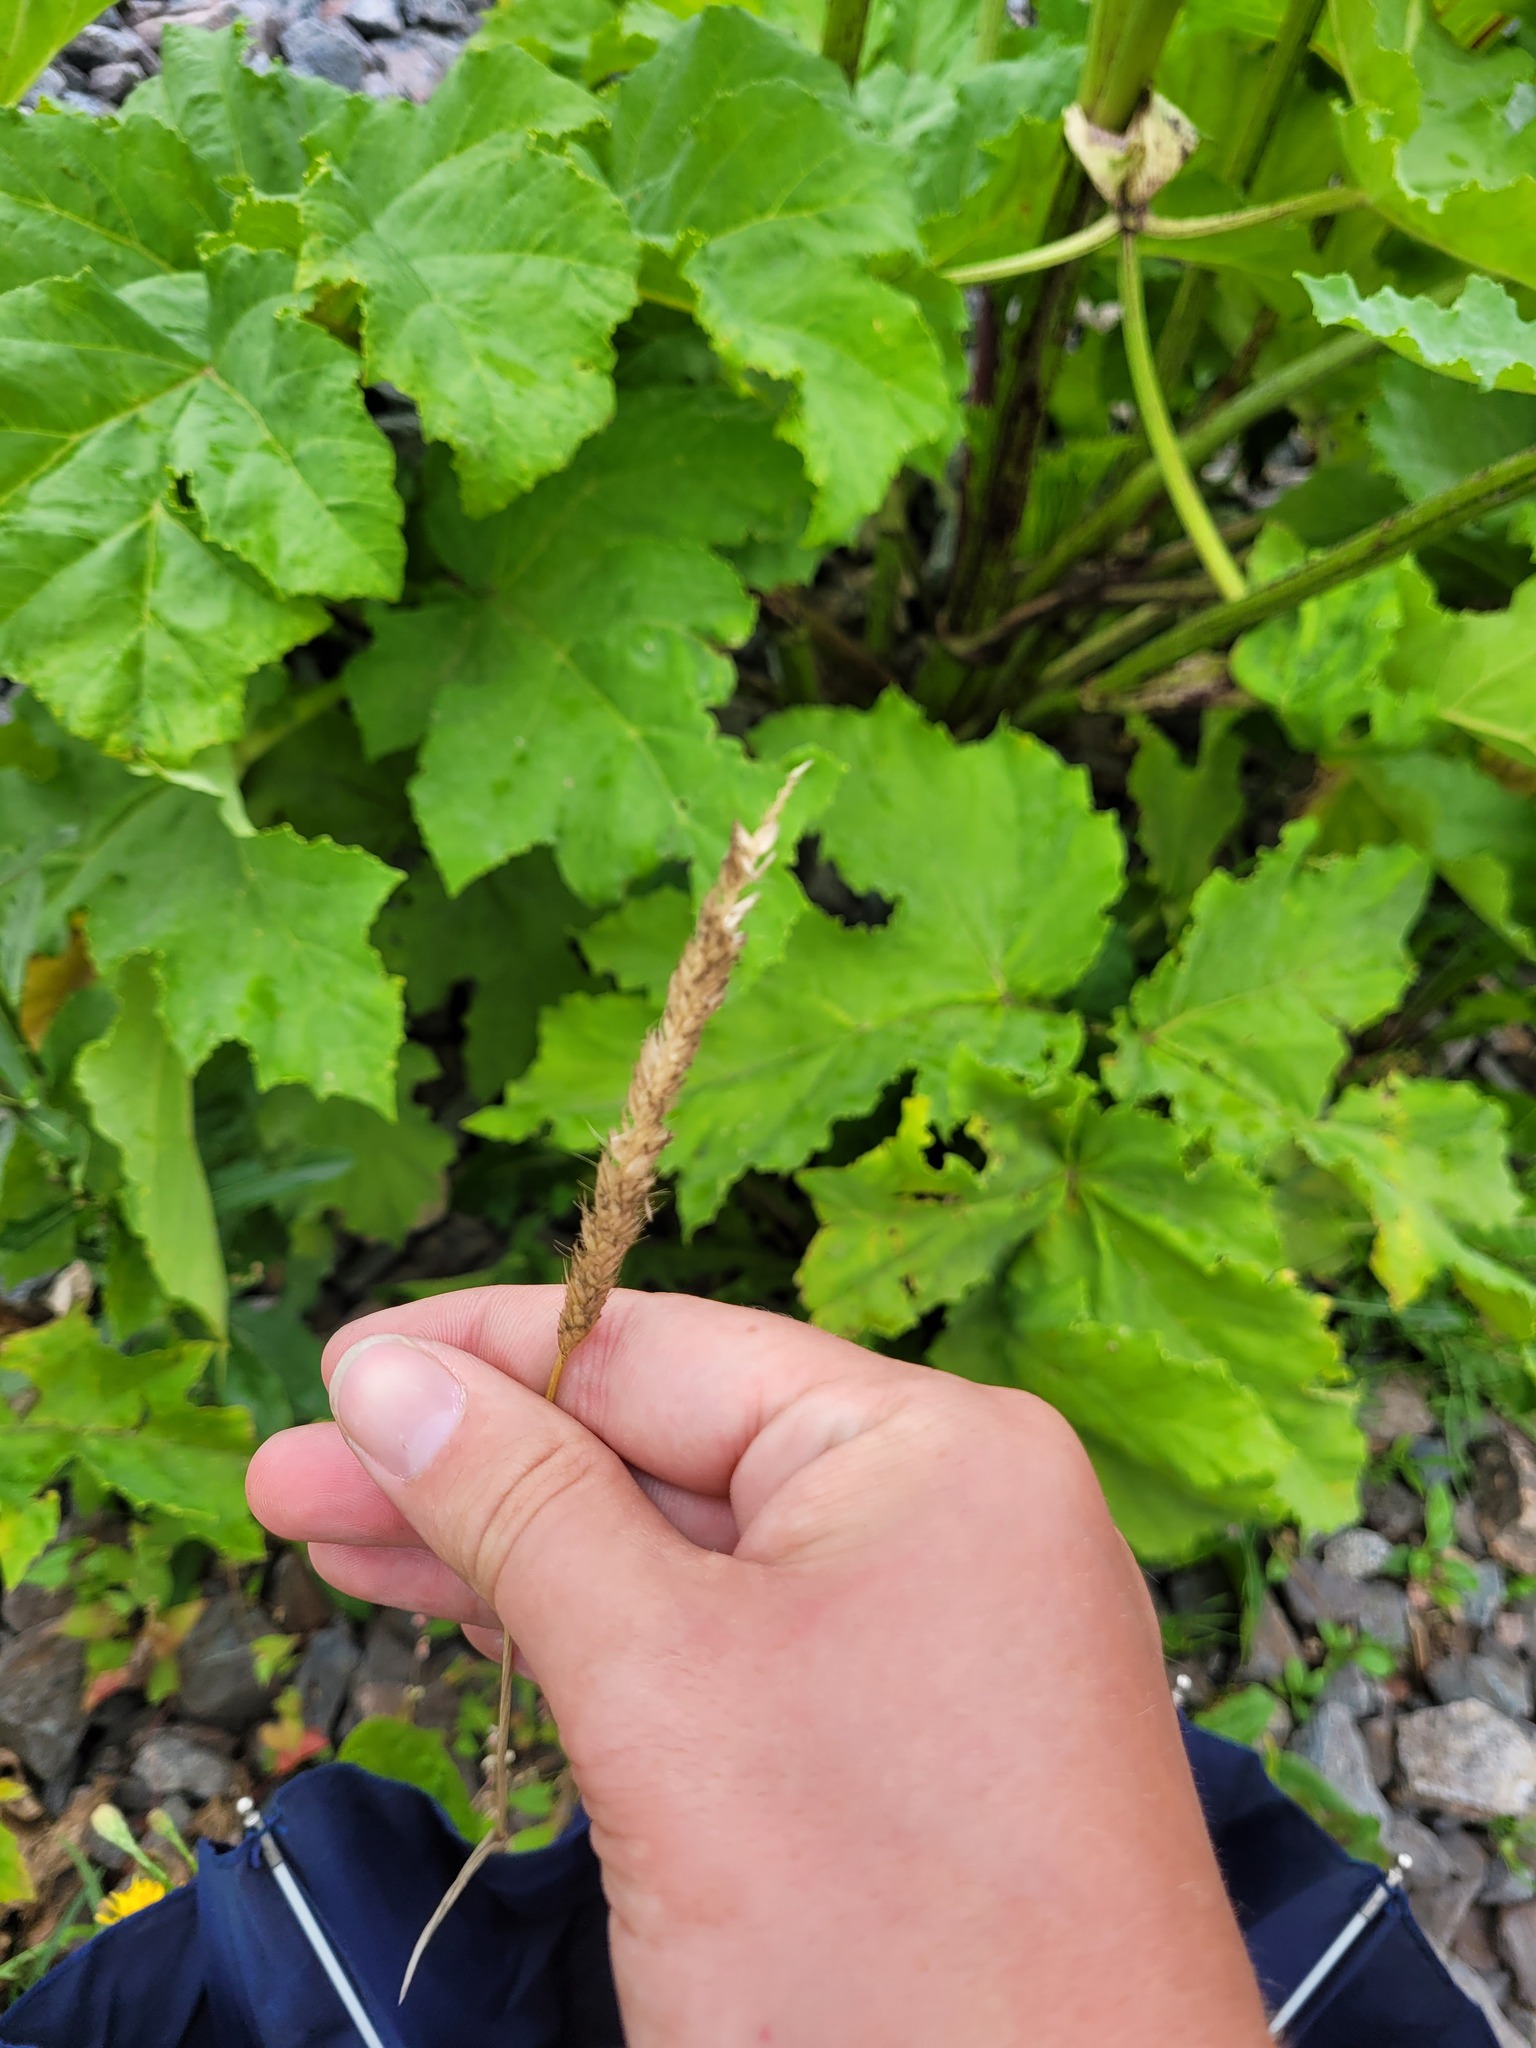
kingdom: Plantae
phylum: Tracheophyta
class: Liliopsida
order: Poales
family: Poaceae
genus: Alopecurus
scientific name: Alopecurus pratensis
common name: Meadow foxtail
